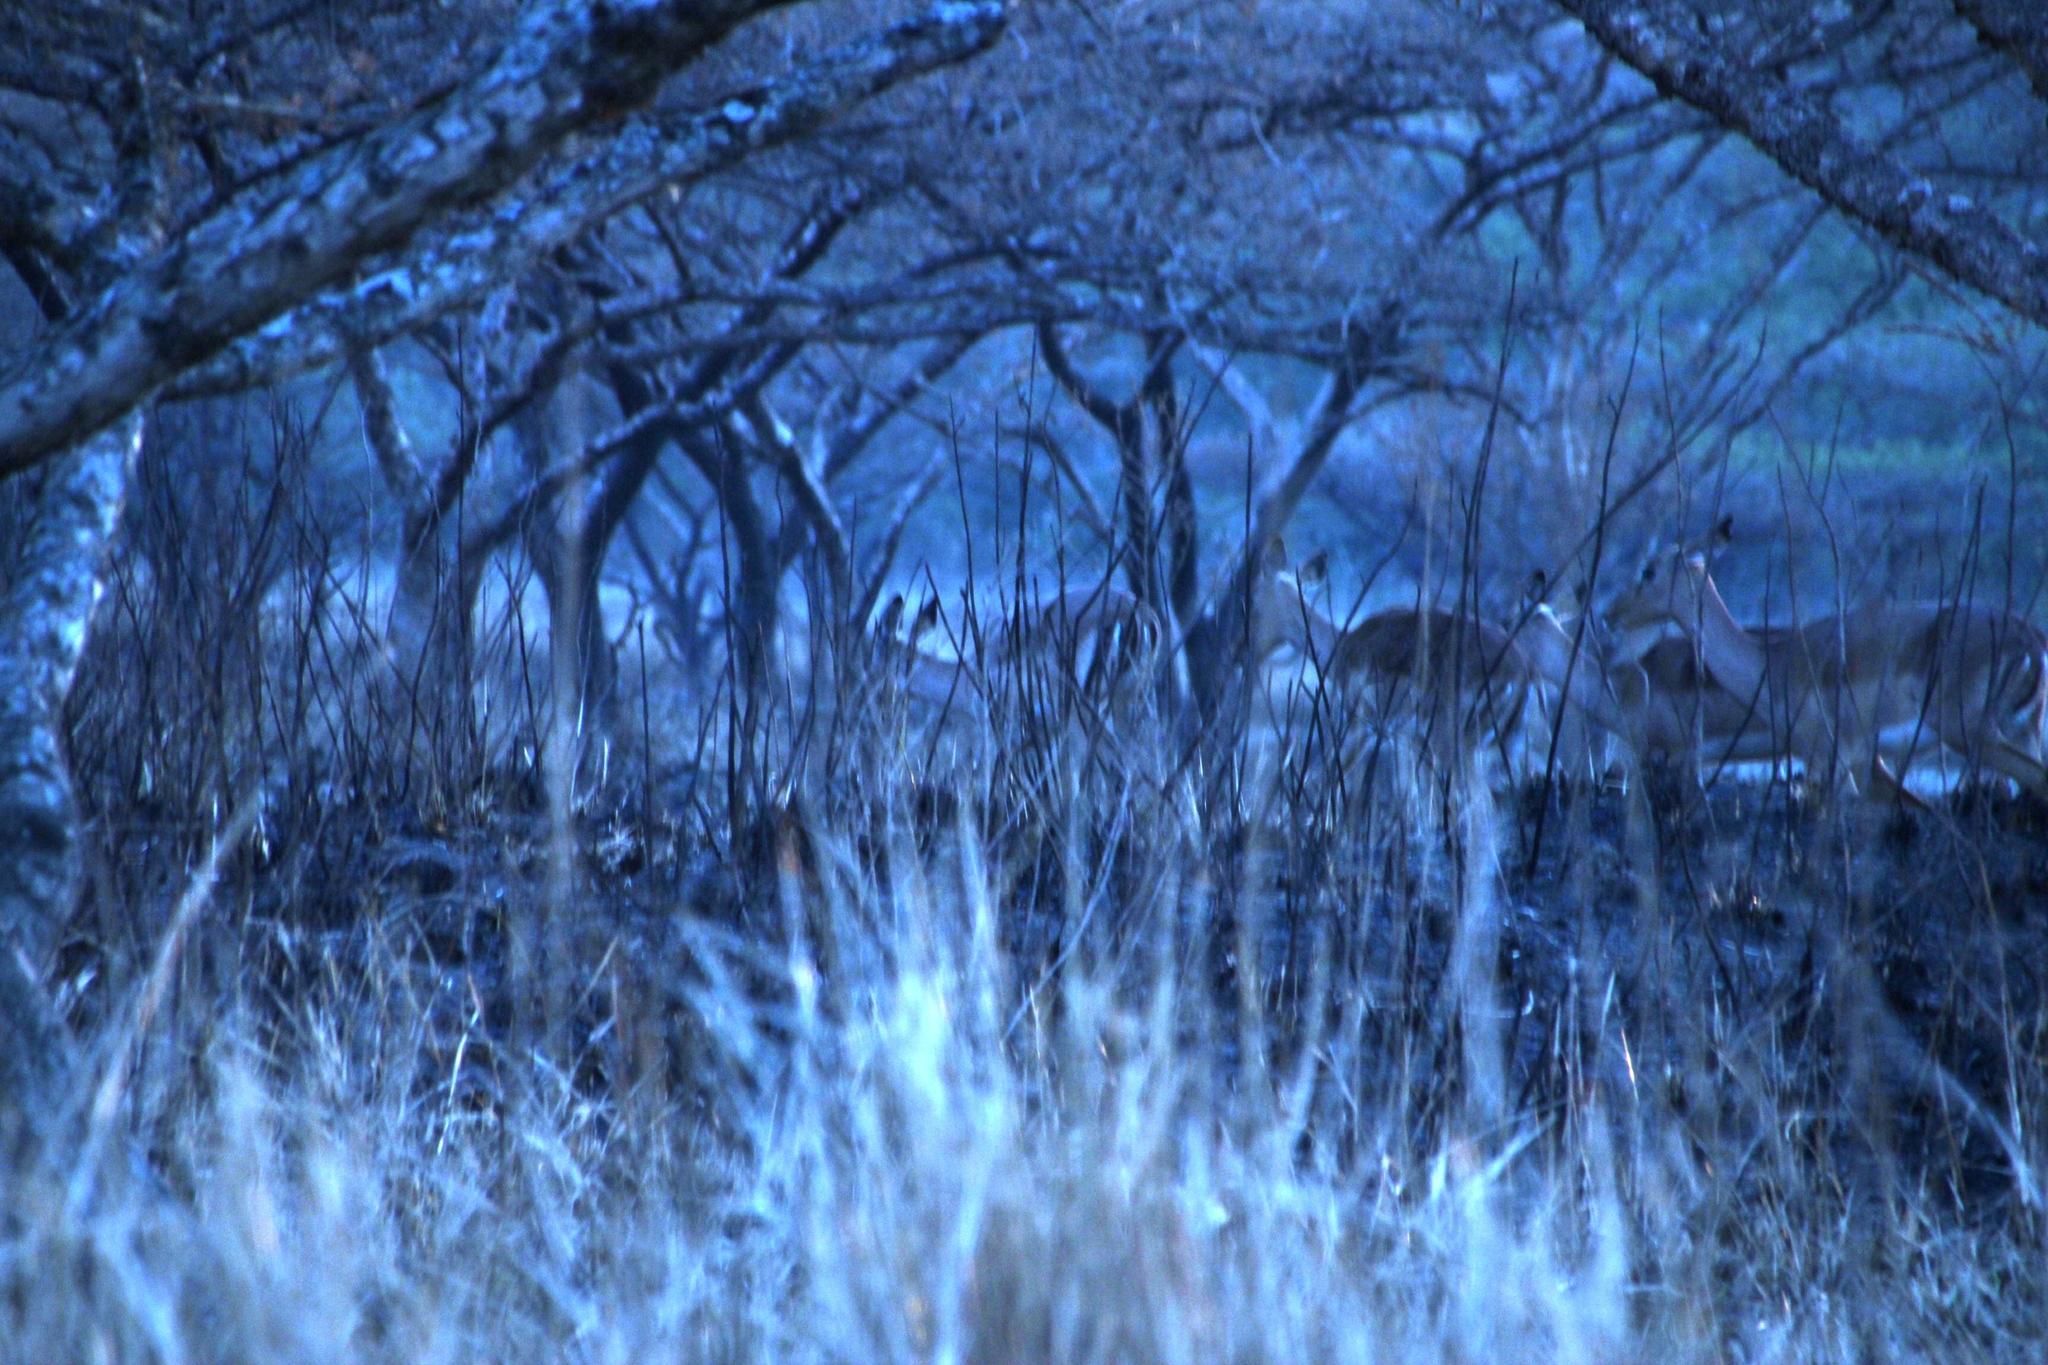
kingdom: Animalia
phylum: Chordata
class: Mammalia
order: Artiodactyla
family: Bovidae
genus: Aepyceros
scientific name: Aepyceros melampus
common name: Impala
